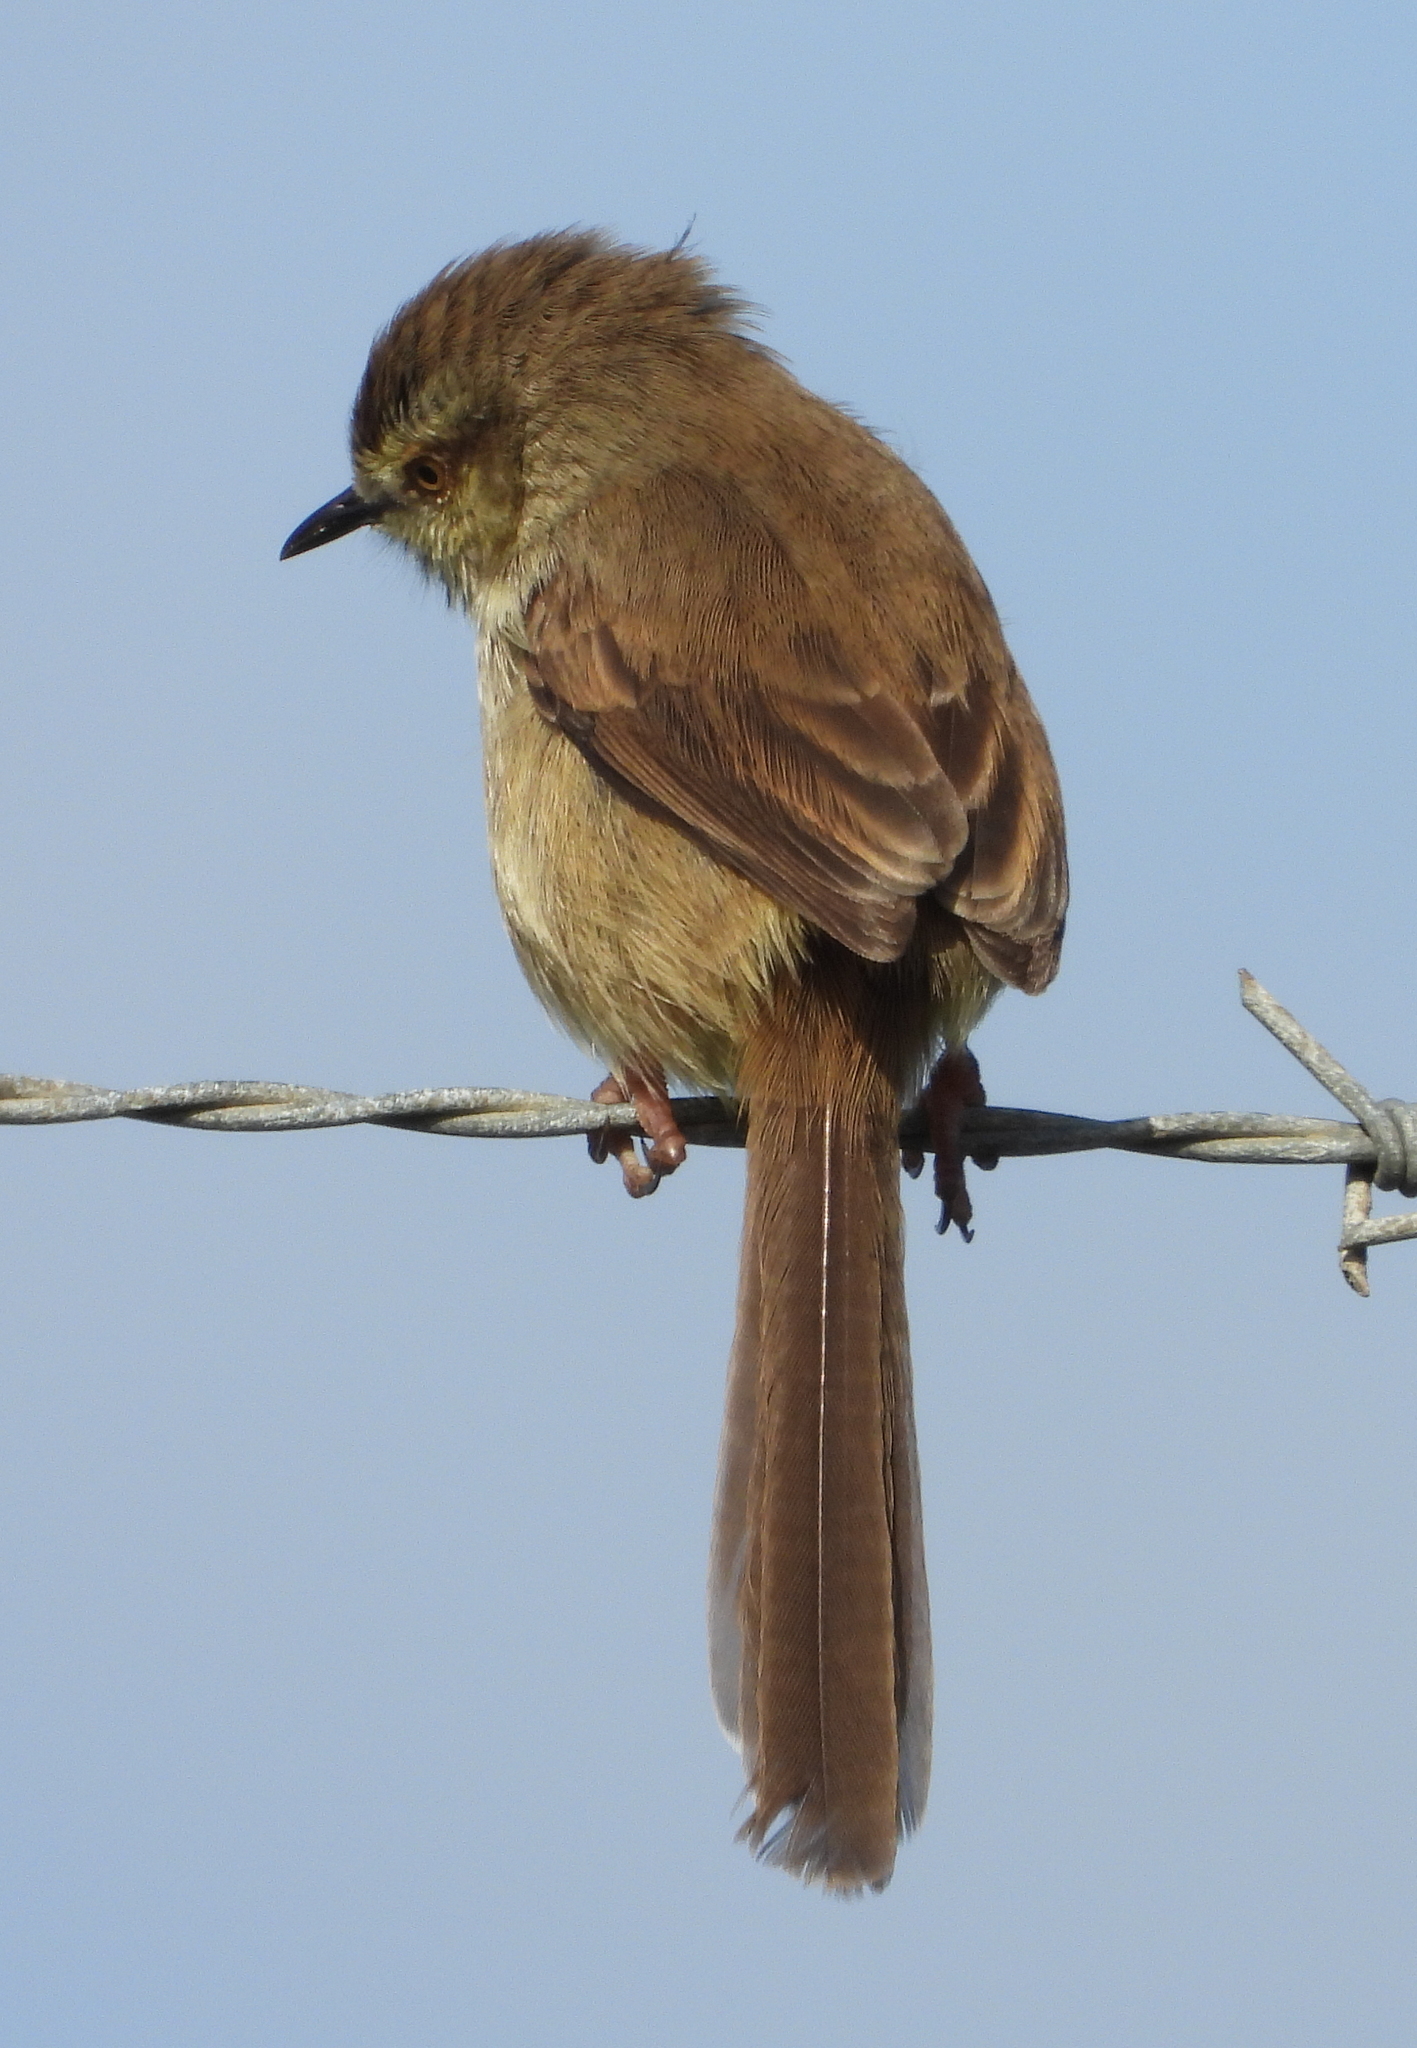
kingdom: Animalia
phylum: Chordata
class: Aves
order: Passeriformes
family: Cisticolidae
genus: Prinia
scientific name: Prinia maculosa
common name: Karoo prinia
